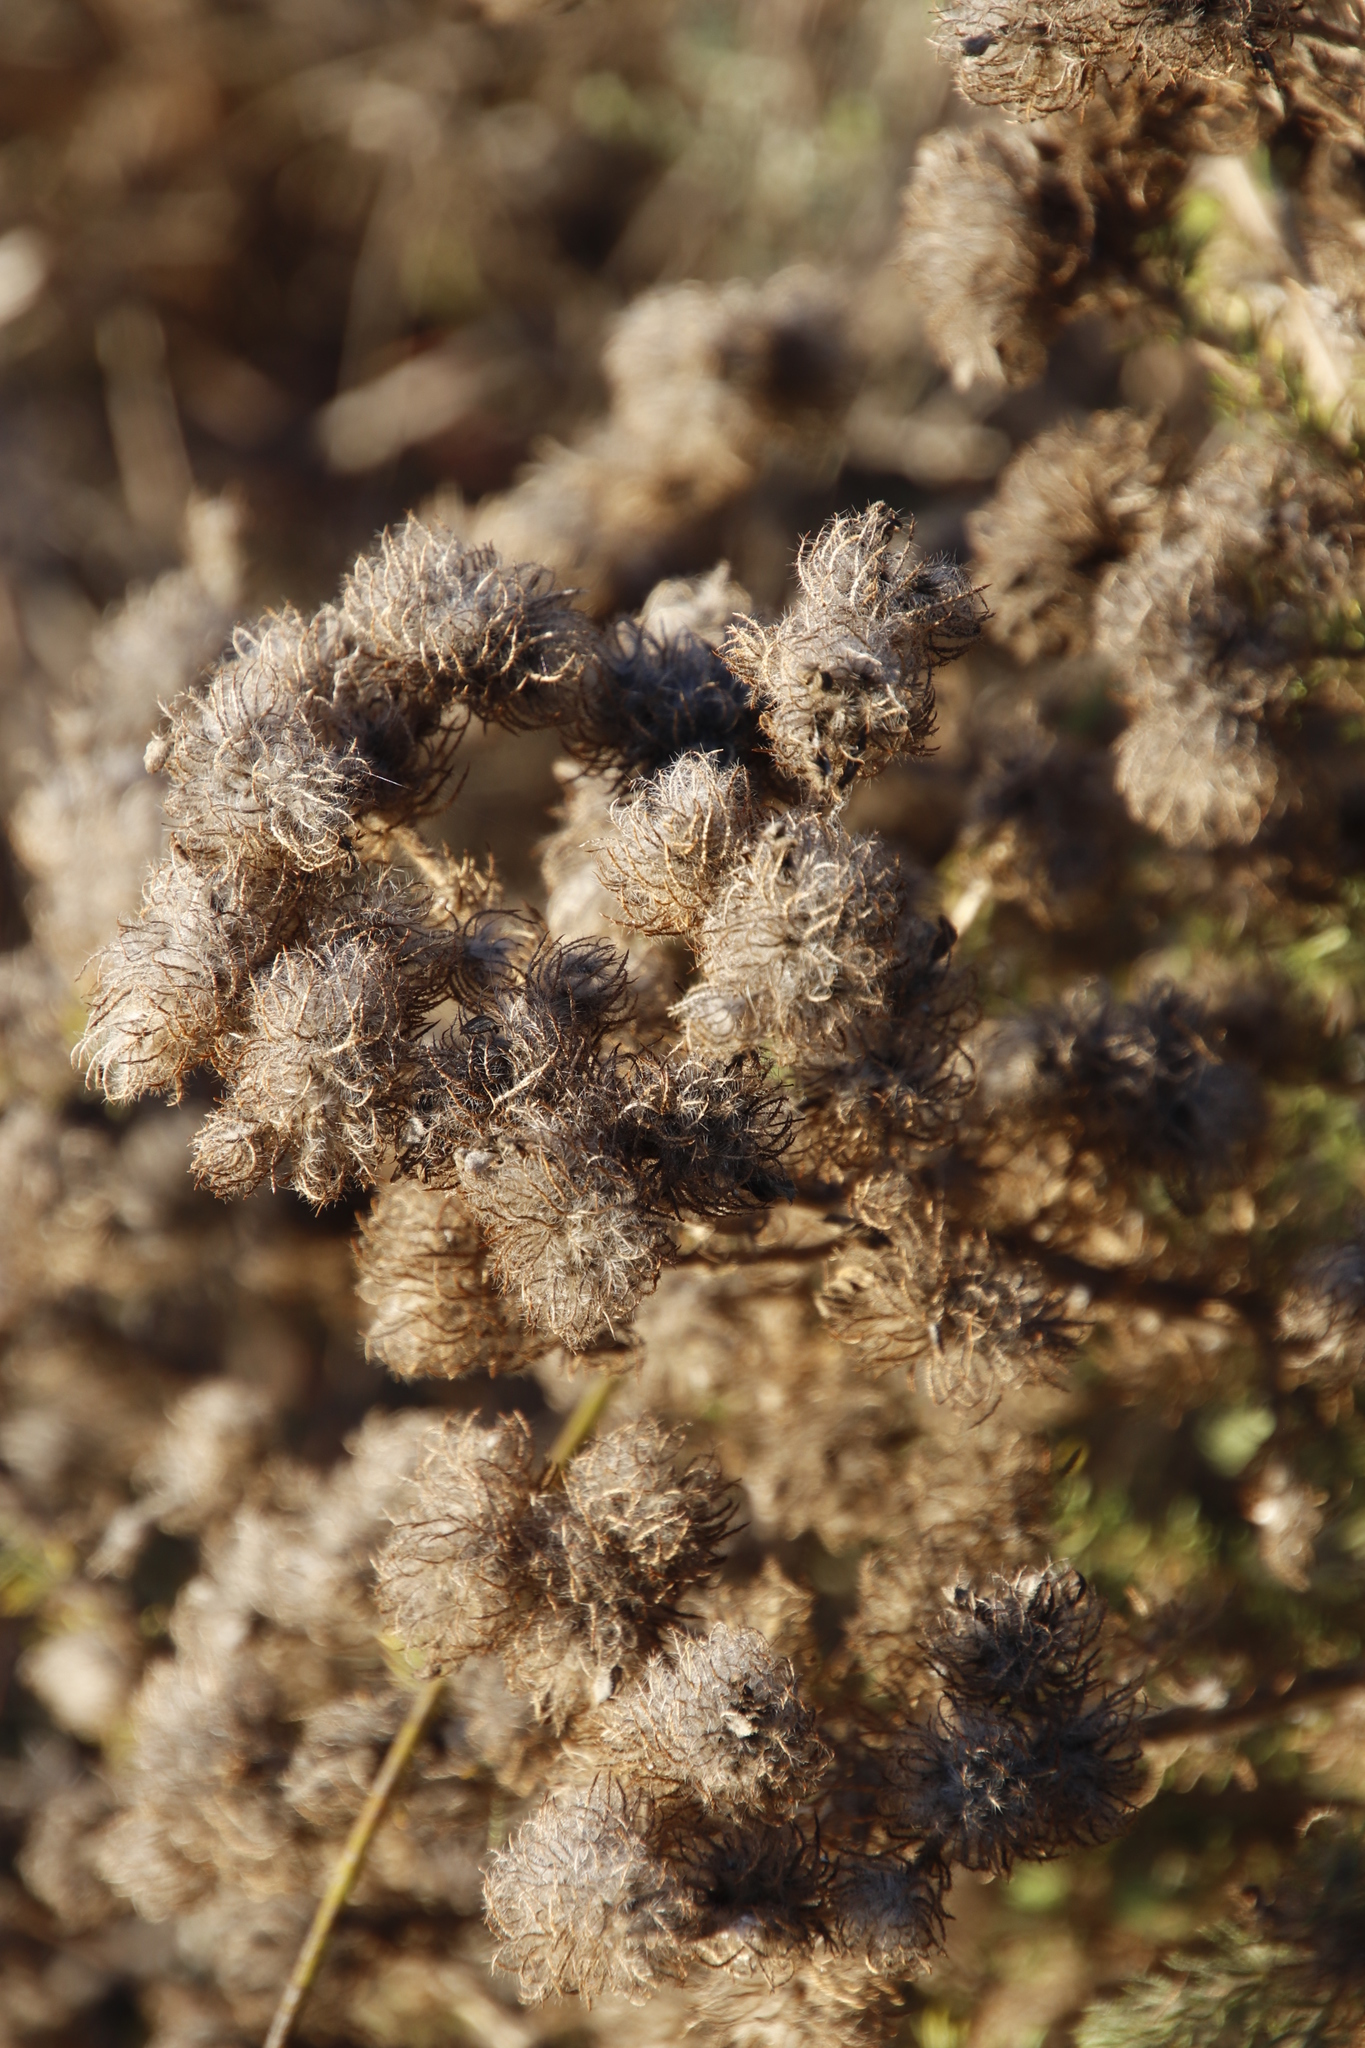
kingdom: Plantae
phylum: Tracheophyta
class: Magnoliopsida
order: Fabales
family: Fabaceae
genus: Aspalathus
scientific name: Aspalathus araneosa
